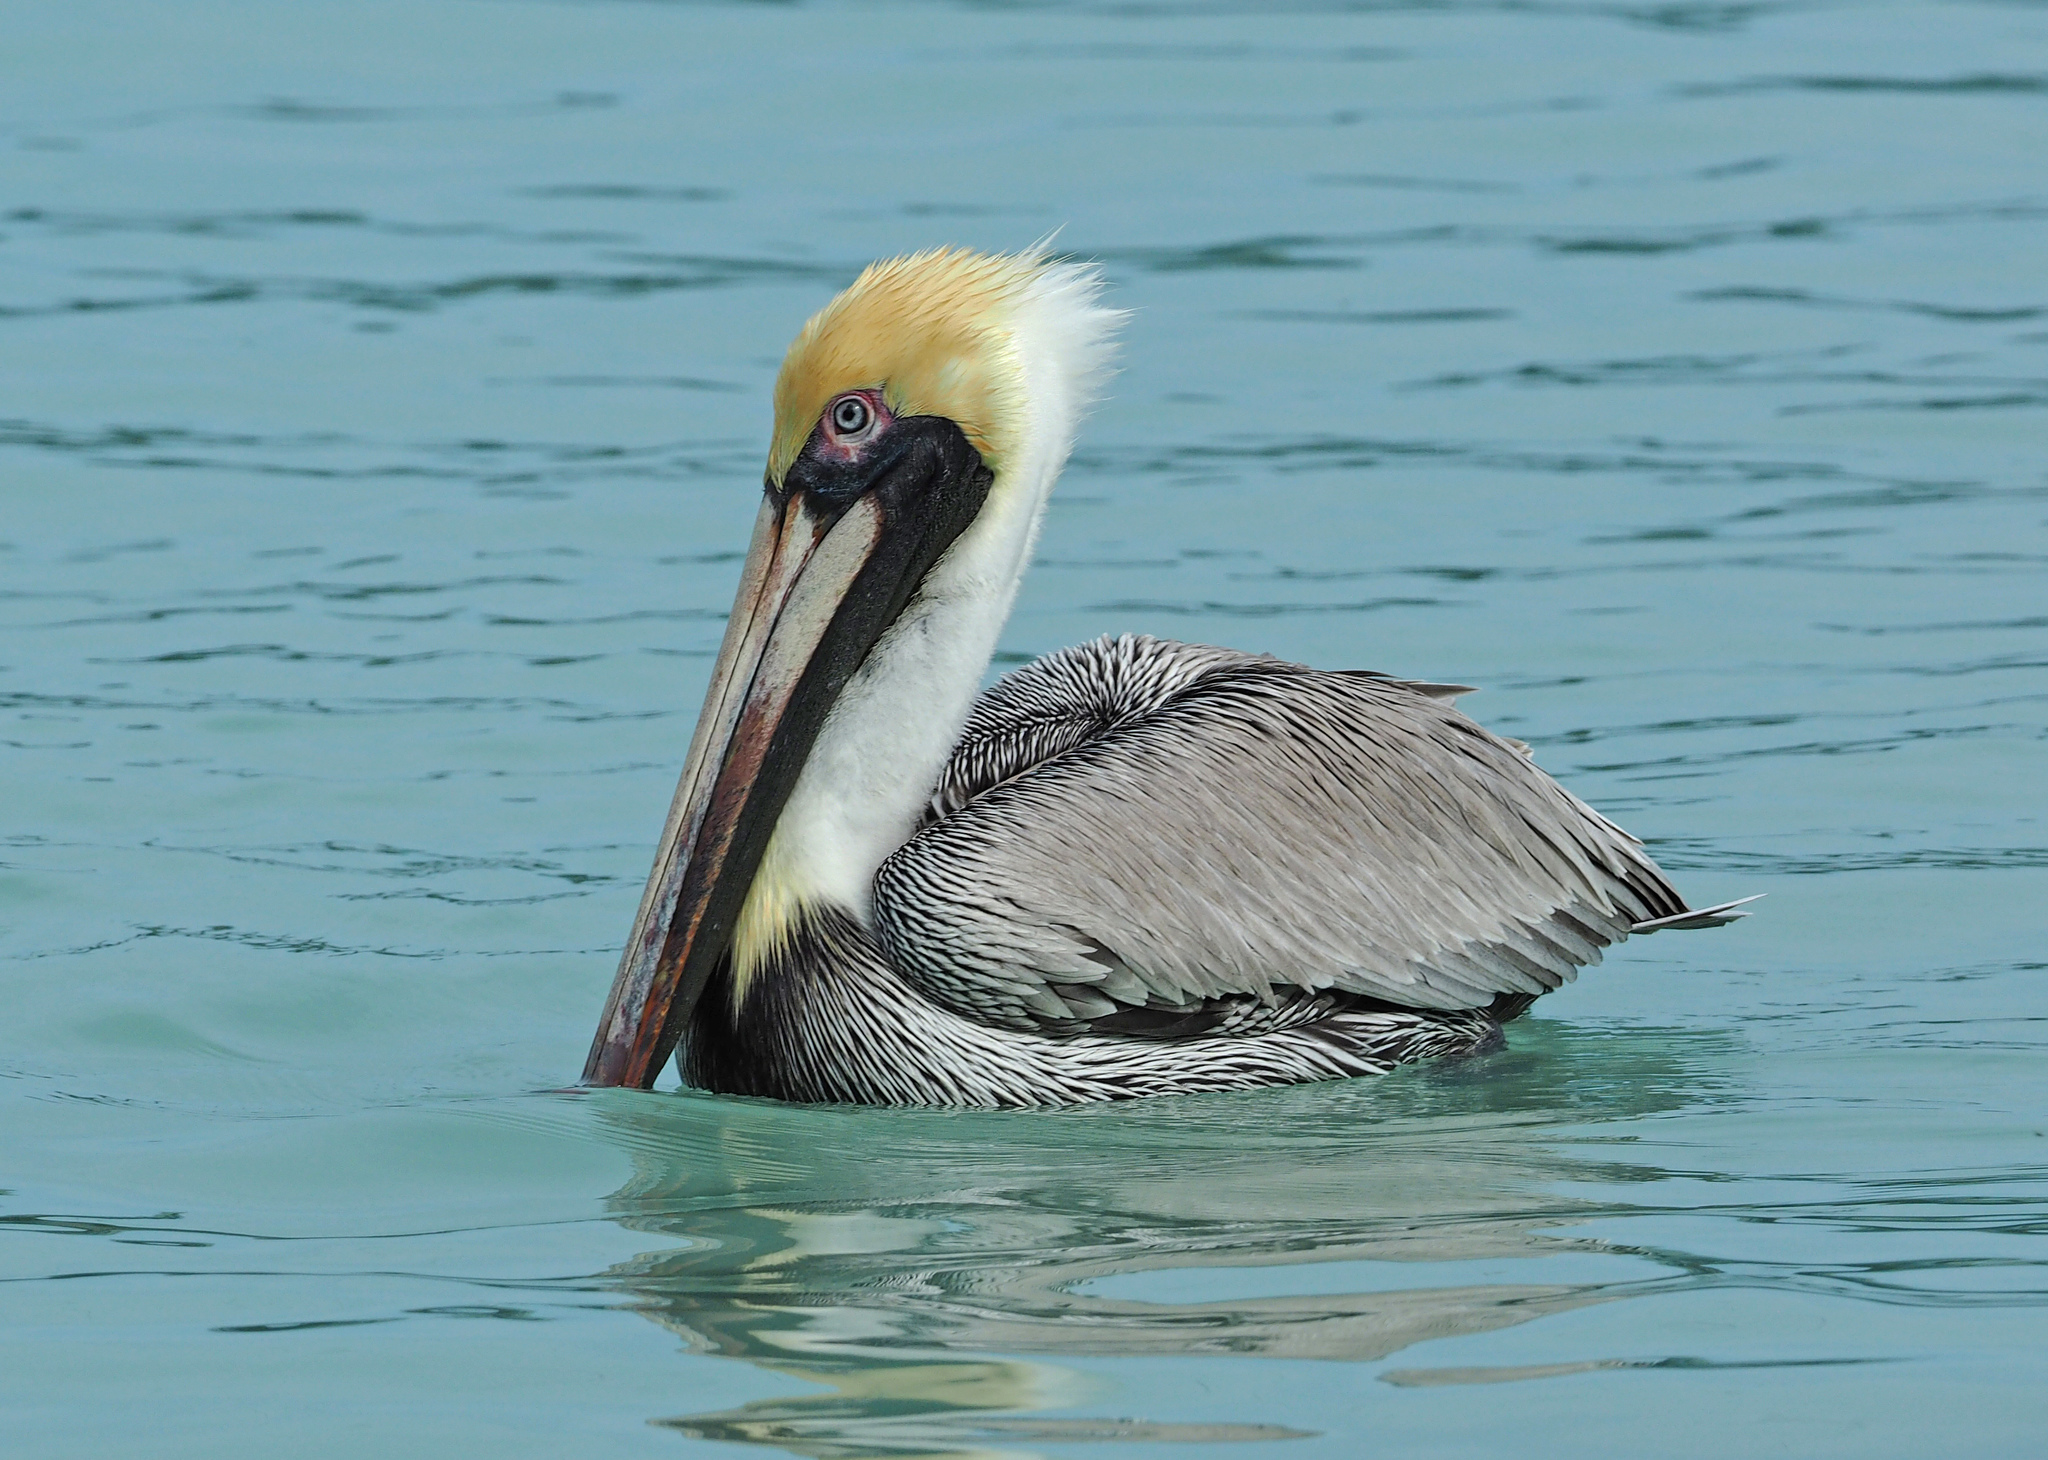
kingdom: Animalia
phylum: Chordata
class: Aves
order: Pelecaniformes
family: Pelecanidae
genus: Pelecanus
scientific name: Pelecanus occidentalis
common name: Brown pelican
